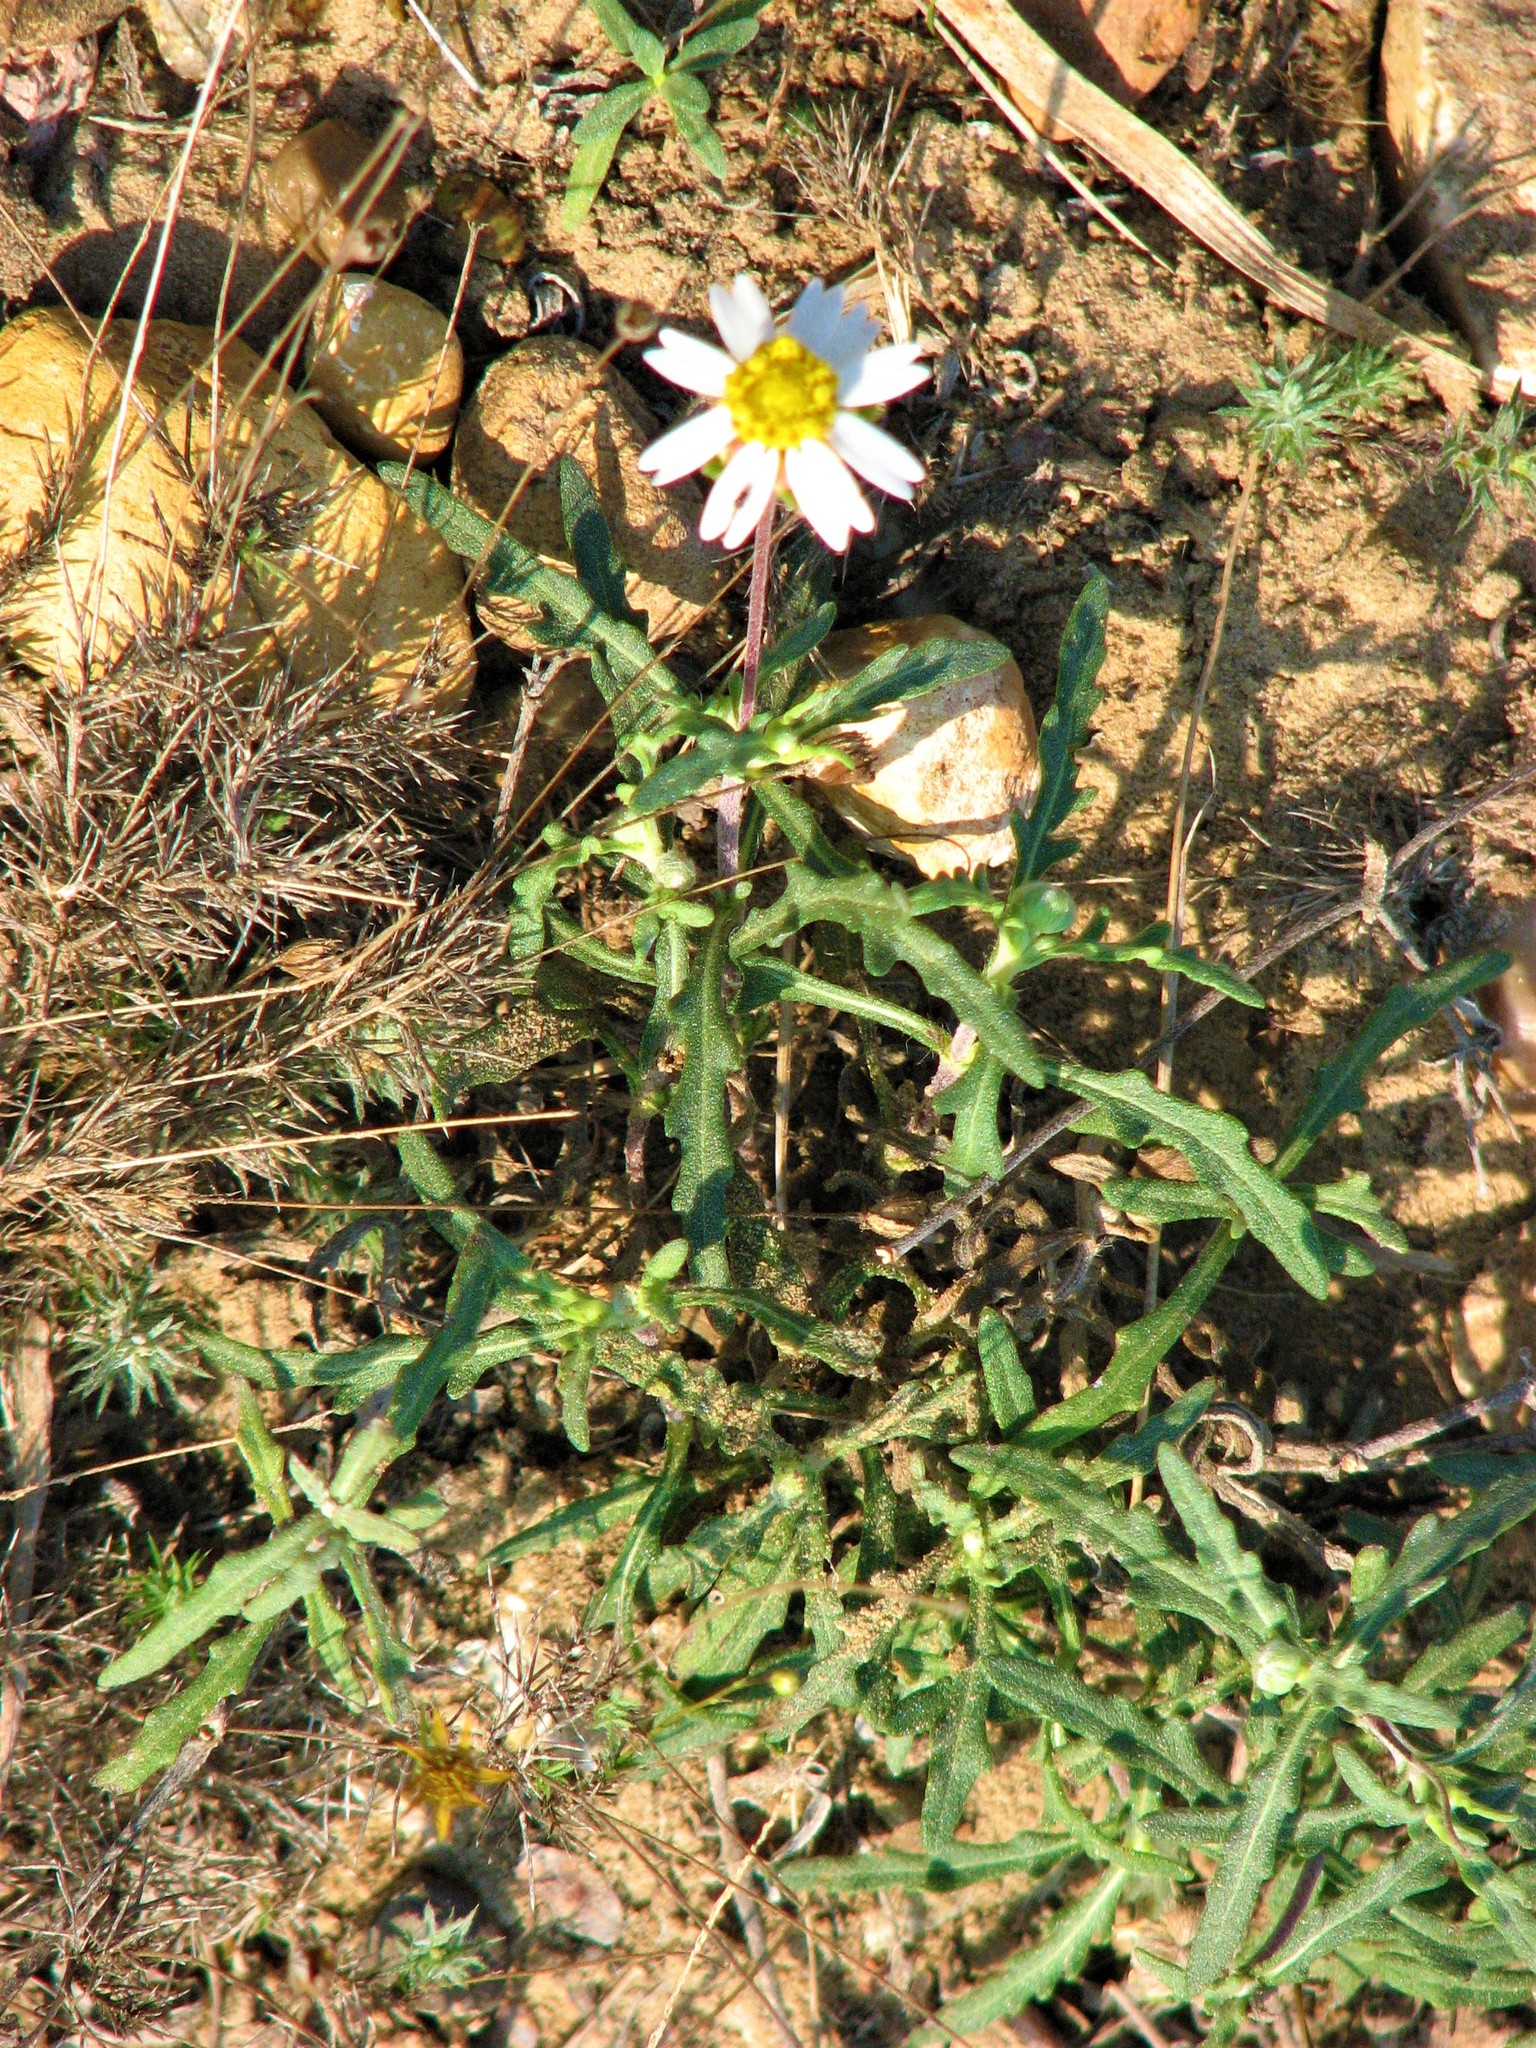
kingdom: Plantae
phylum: Tracheophyta
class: Magnoliopsida
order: Asterales
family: Asteraceae
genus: Melampodium
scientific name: Melampodium cinereum
